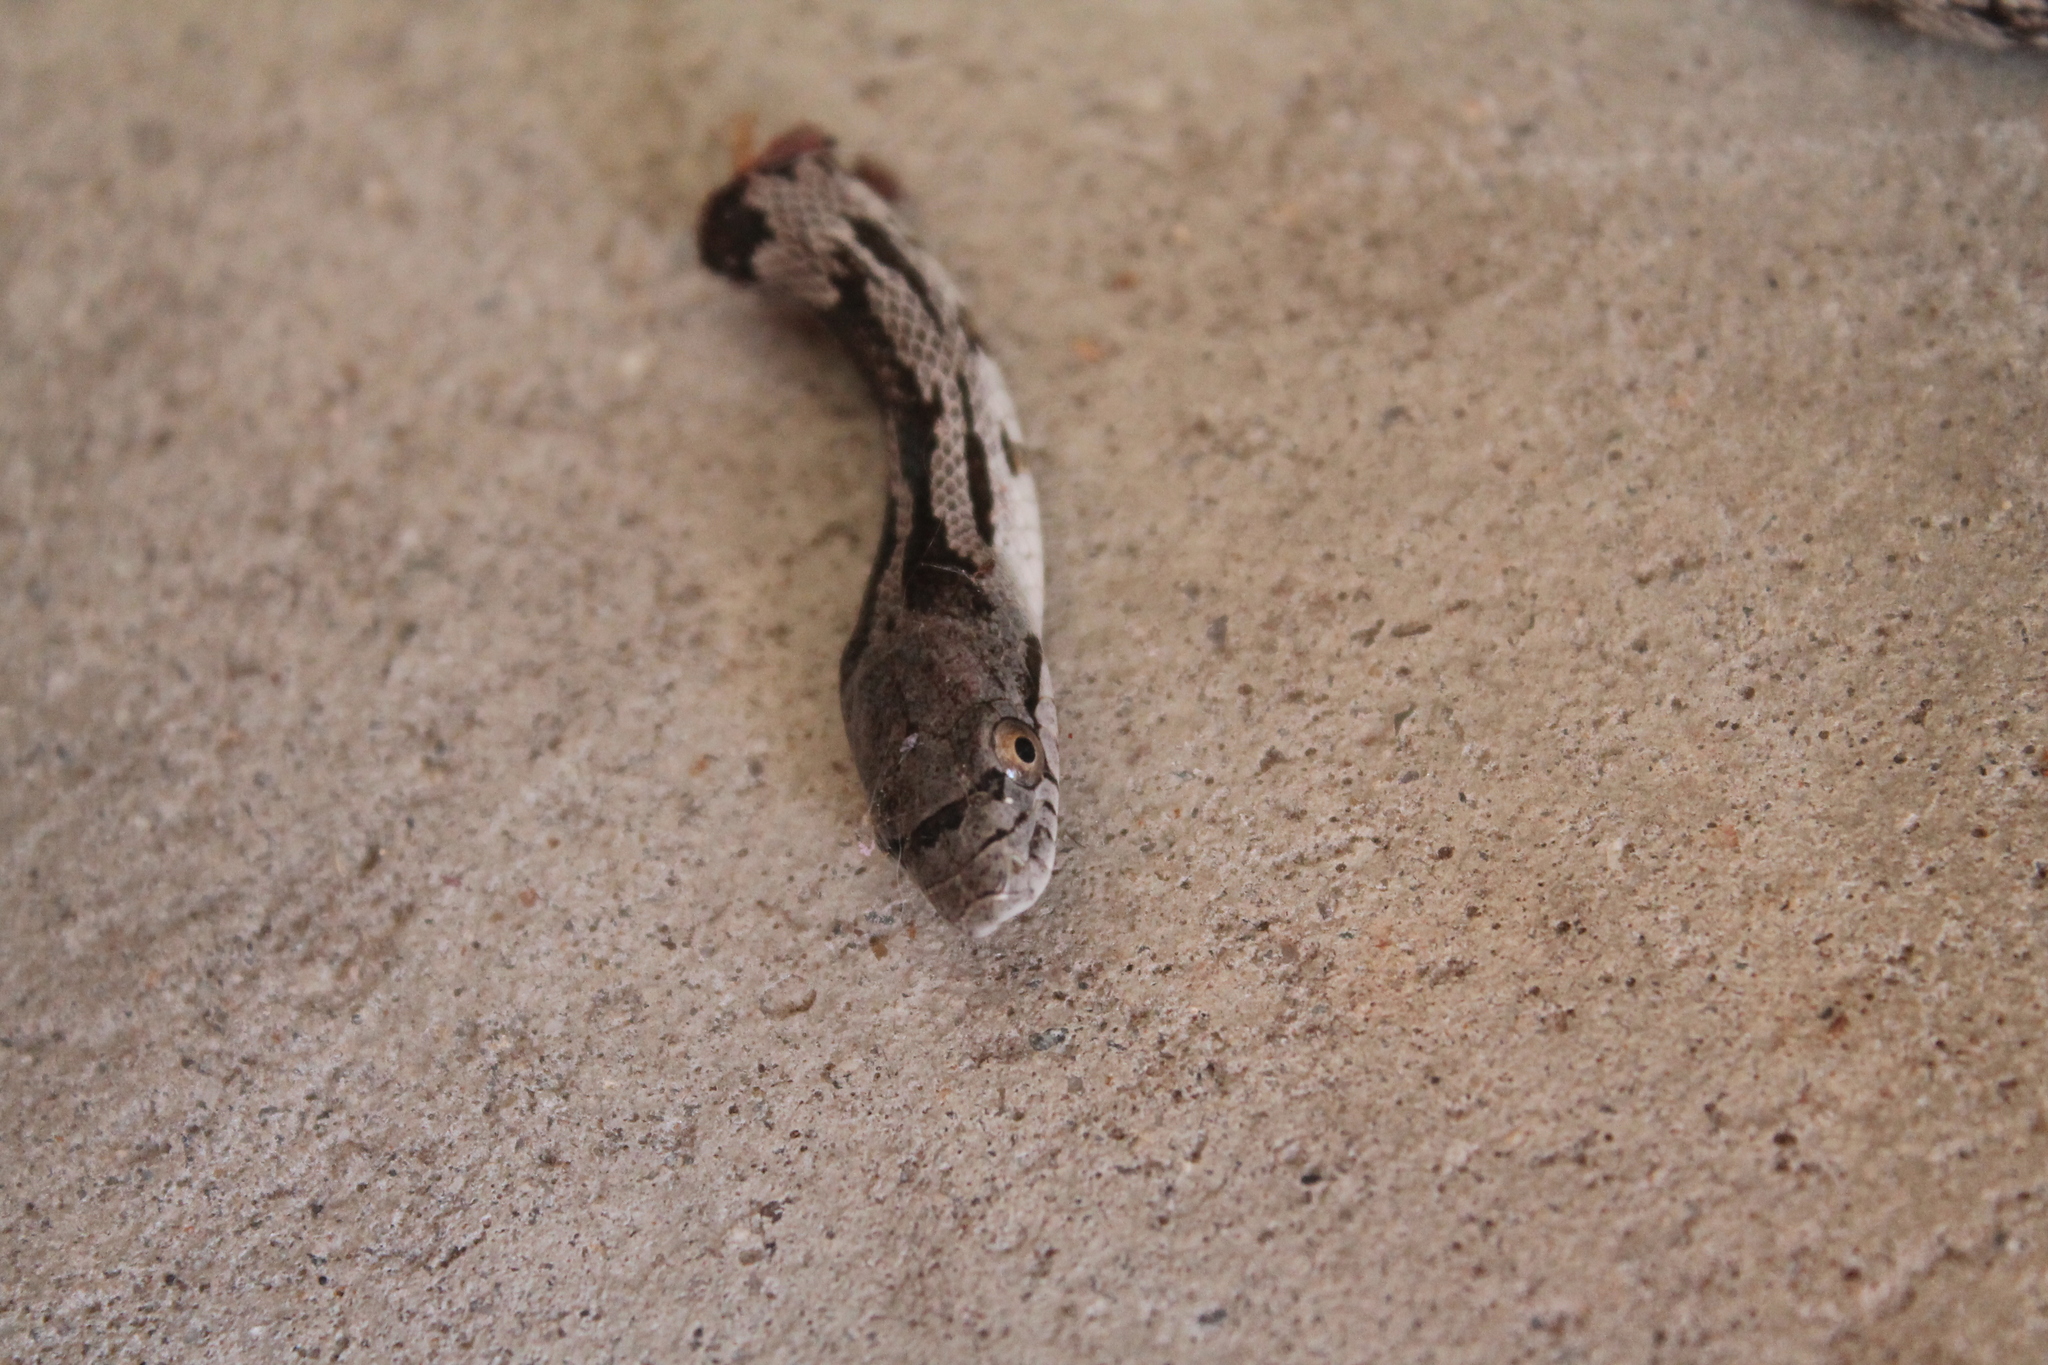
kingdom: Animalia
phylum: Chordata
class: Squamata
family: Colubridae
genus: Pantherophis
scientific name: Pantherophis alleghaniensis
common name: Eastern rat snake
